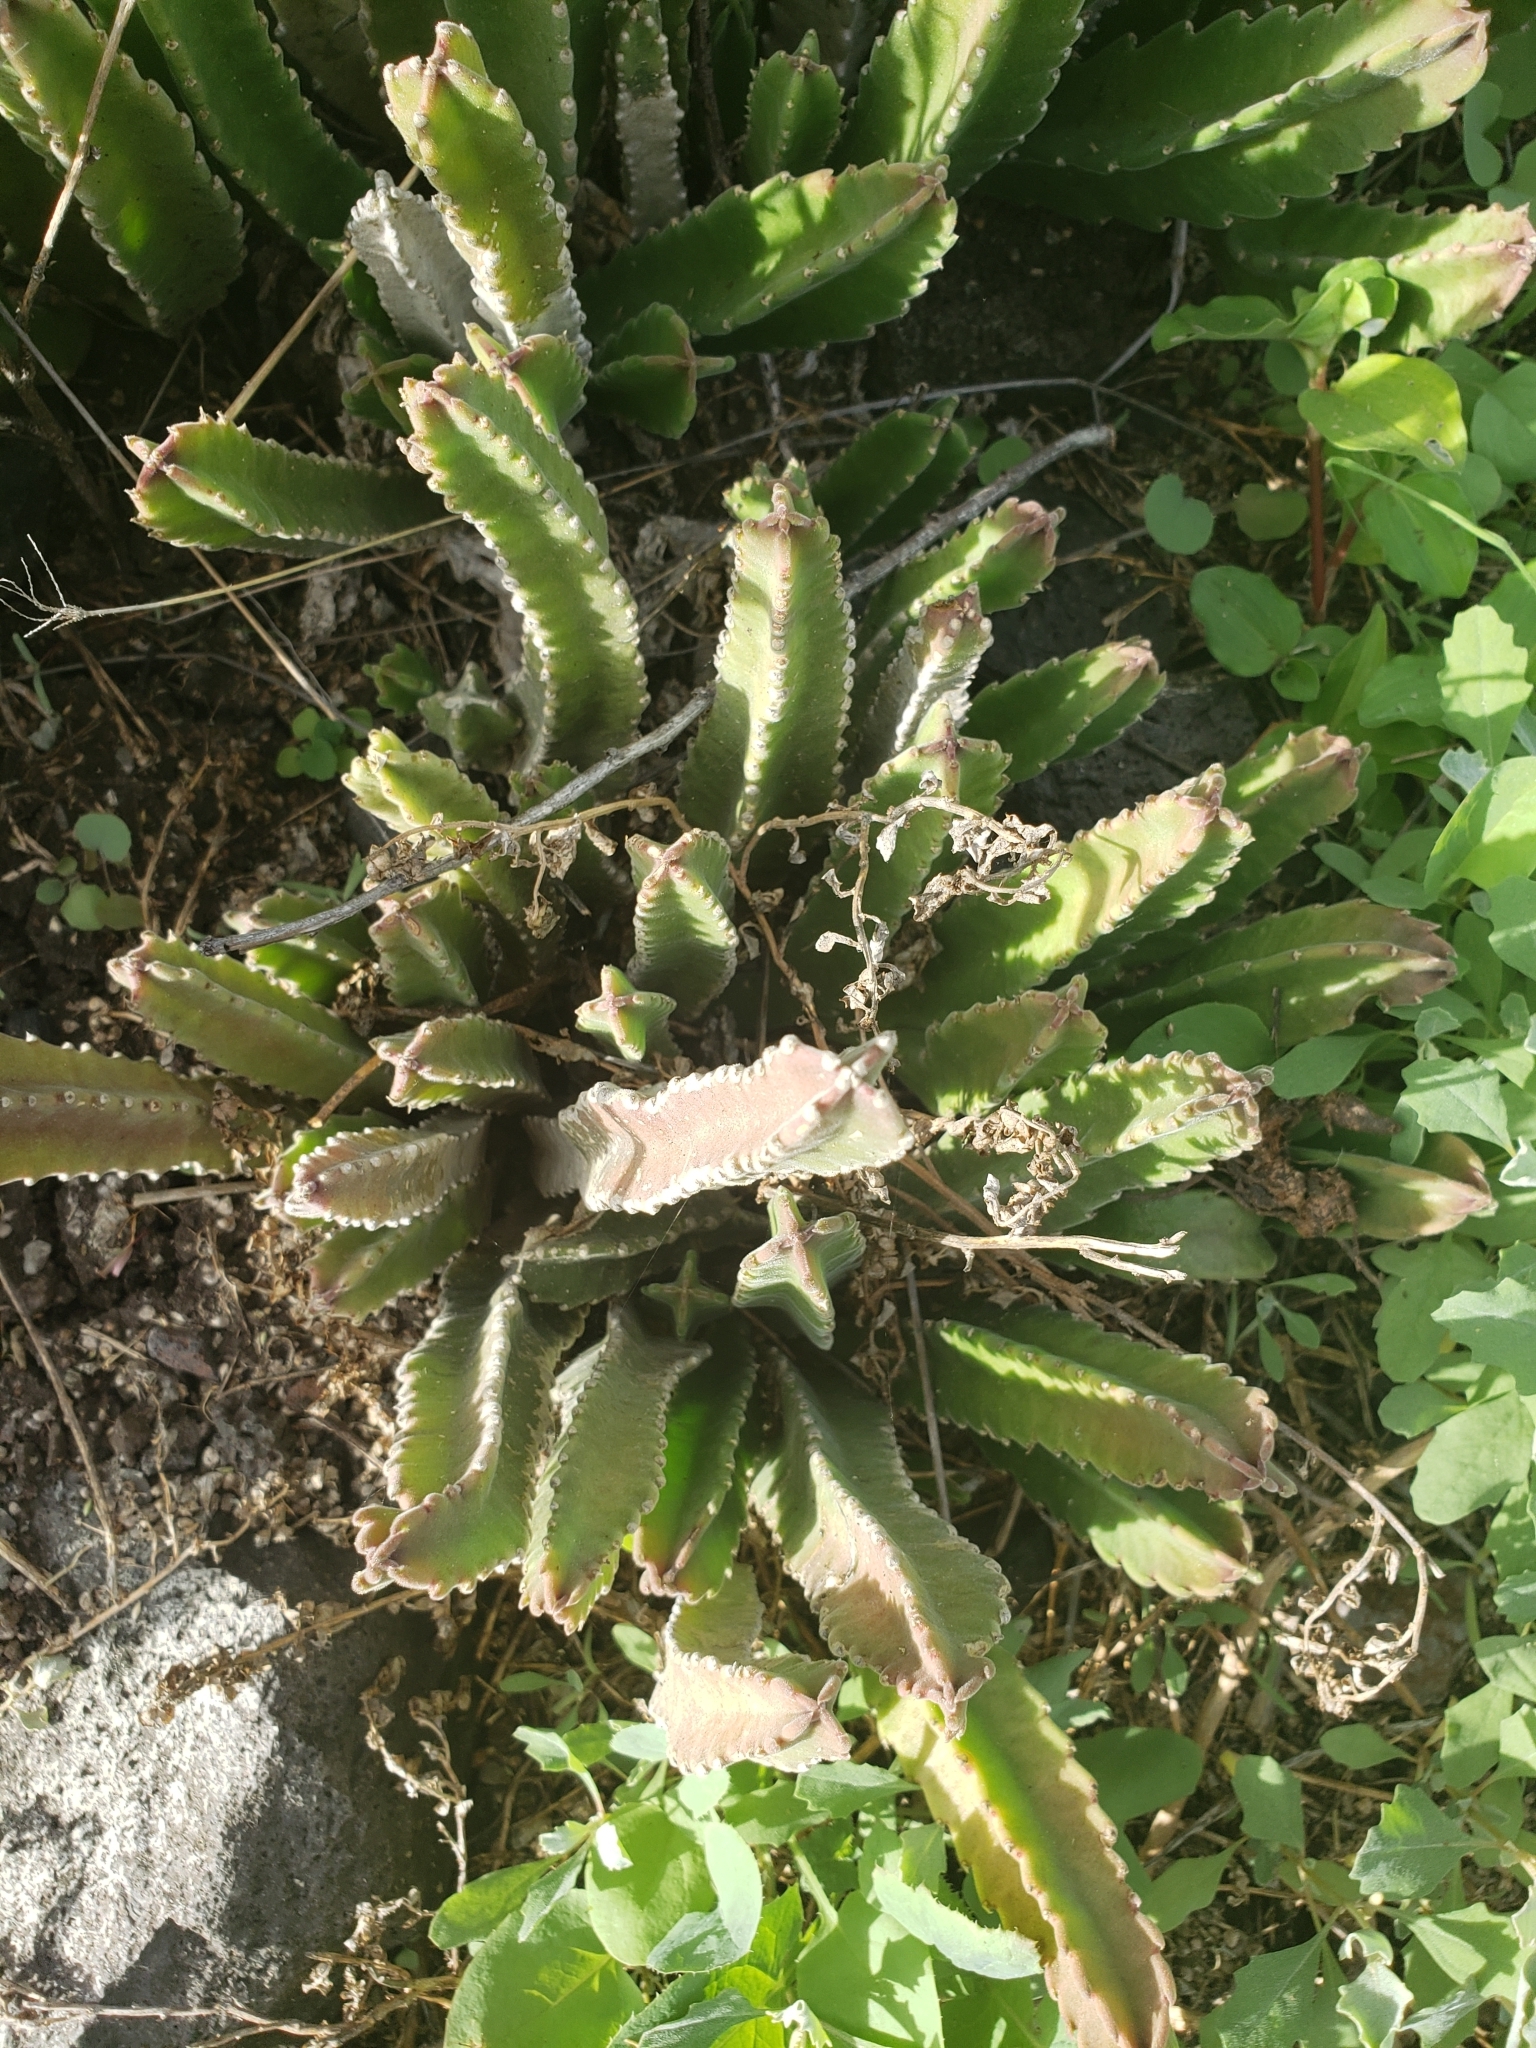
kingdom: Plantae
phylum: Tracheophyta
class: Magnoliopsida
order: Gentianales
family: Apocynaceae
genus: Ceropegia
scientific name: Ceropegia gigantea
